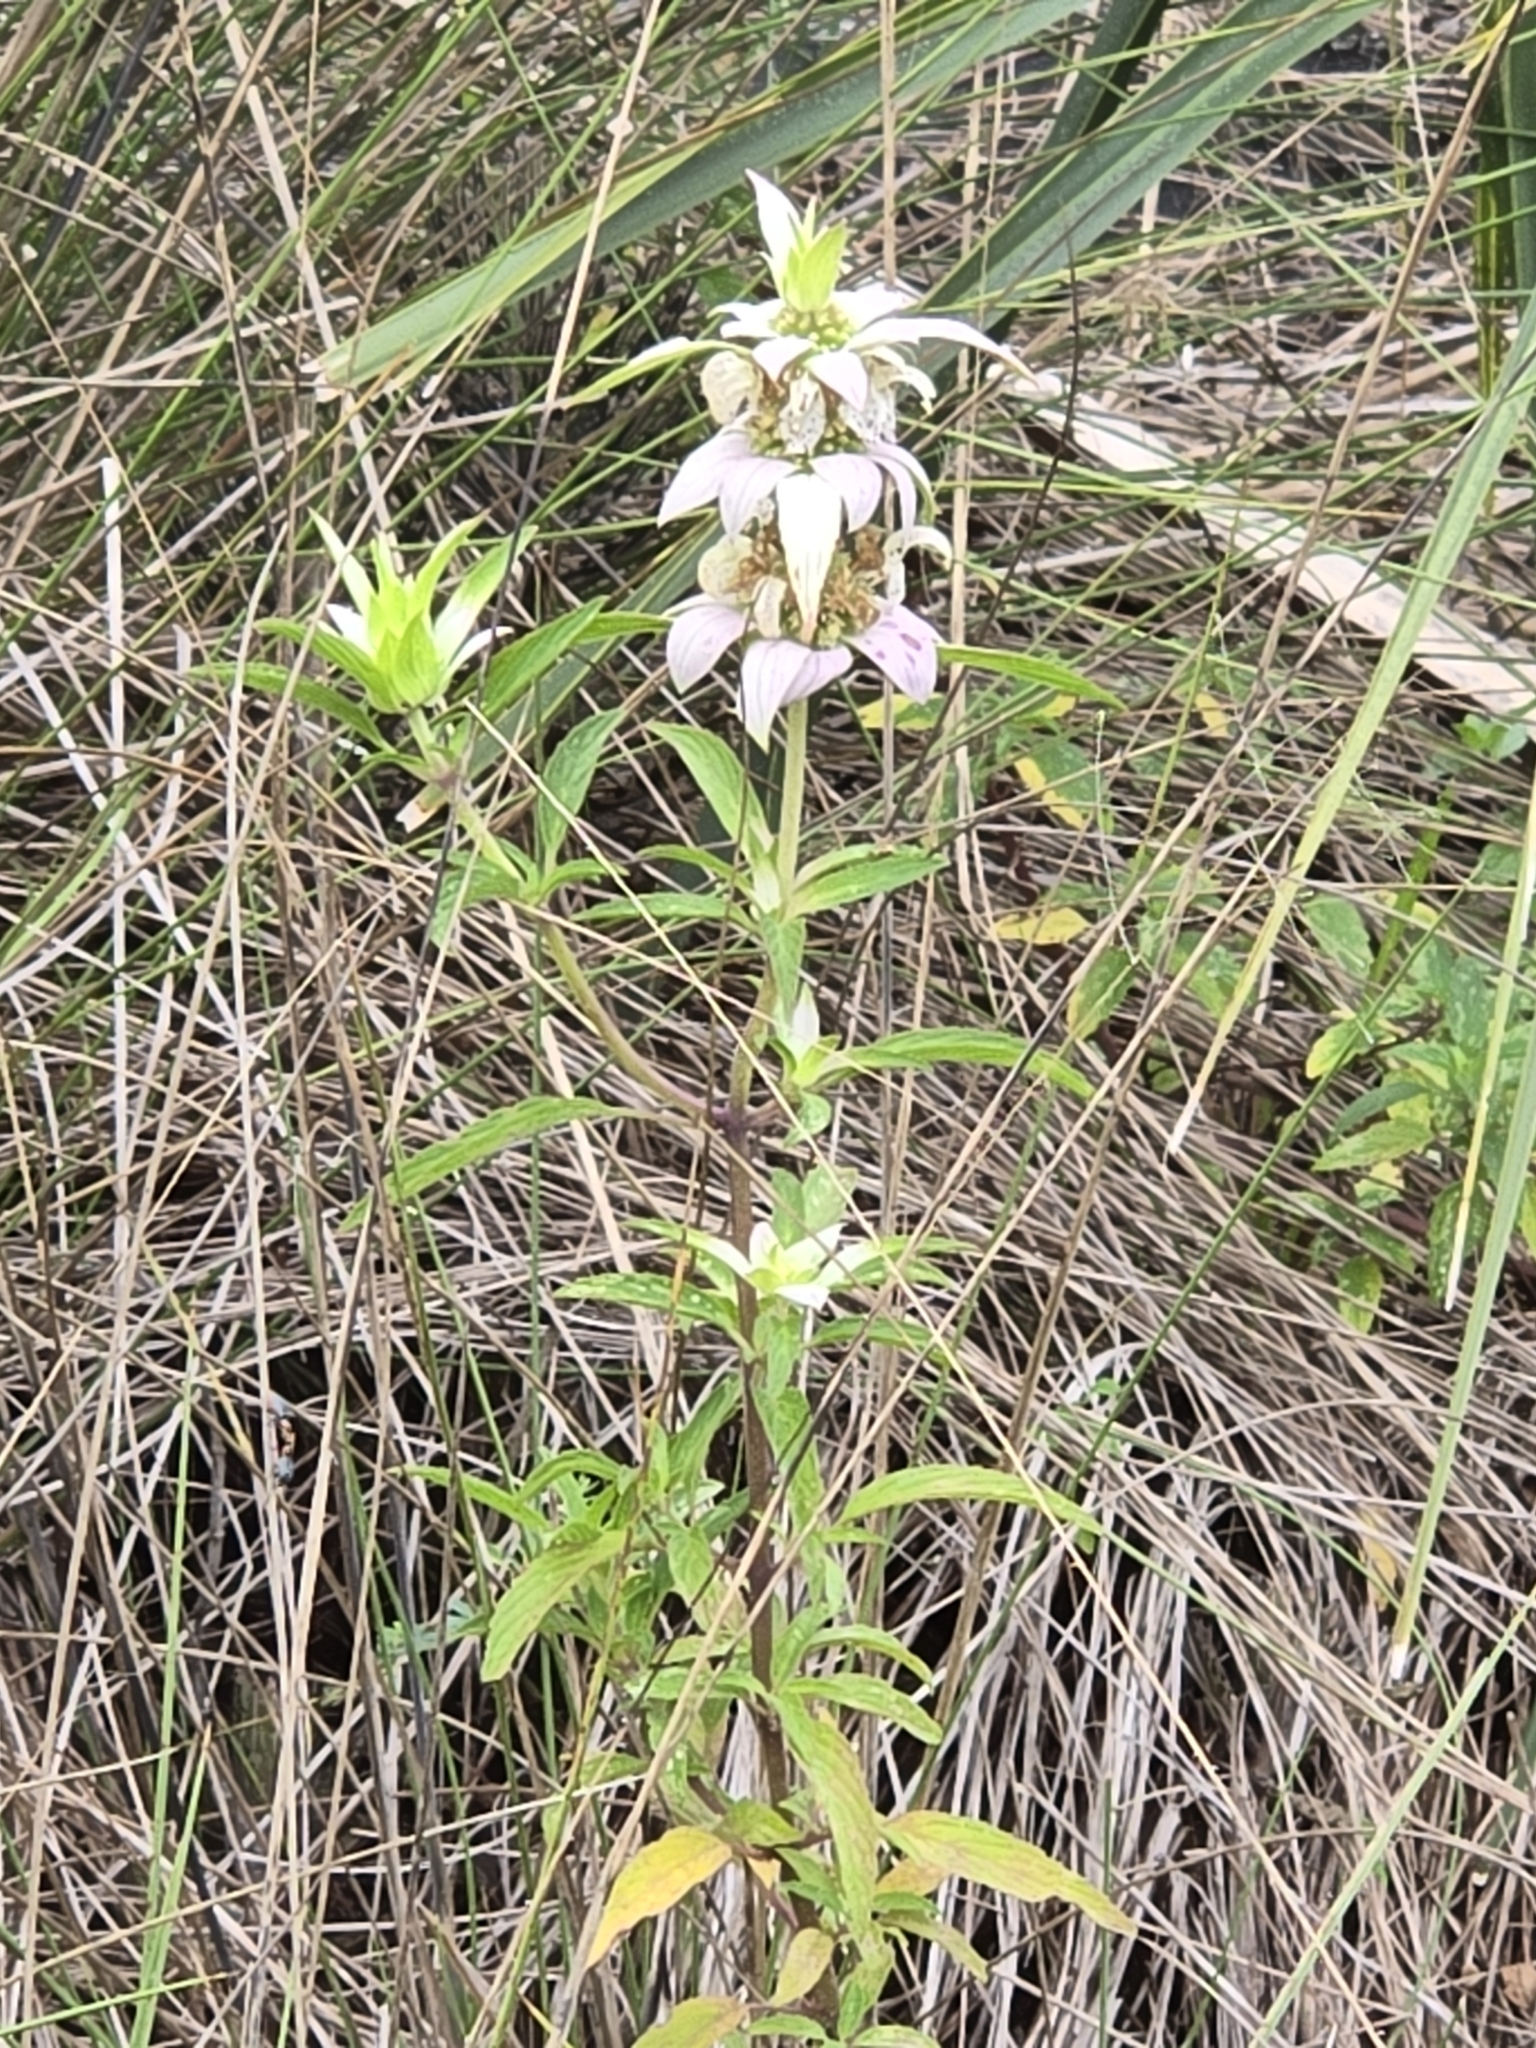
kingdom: Plantae
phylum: Tracheophyta
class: Magnoliopsida
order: Lamiales
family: Lamiaceae
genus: Monarda
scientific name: Monarda punctata
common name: Dotted monarda
